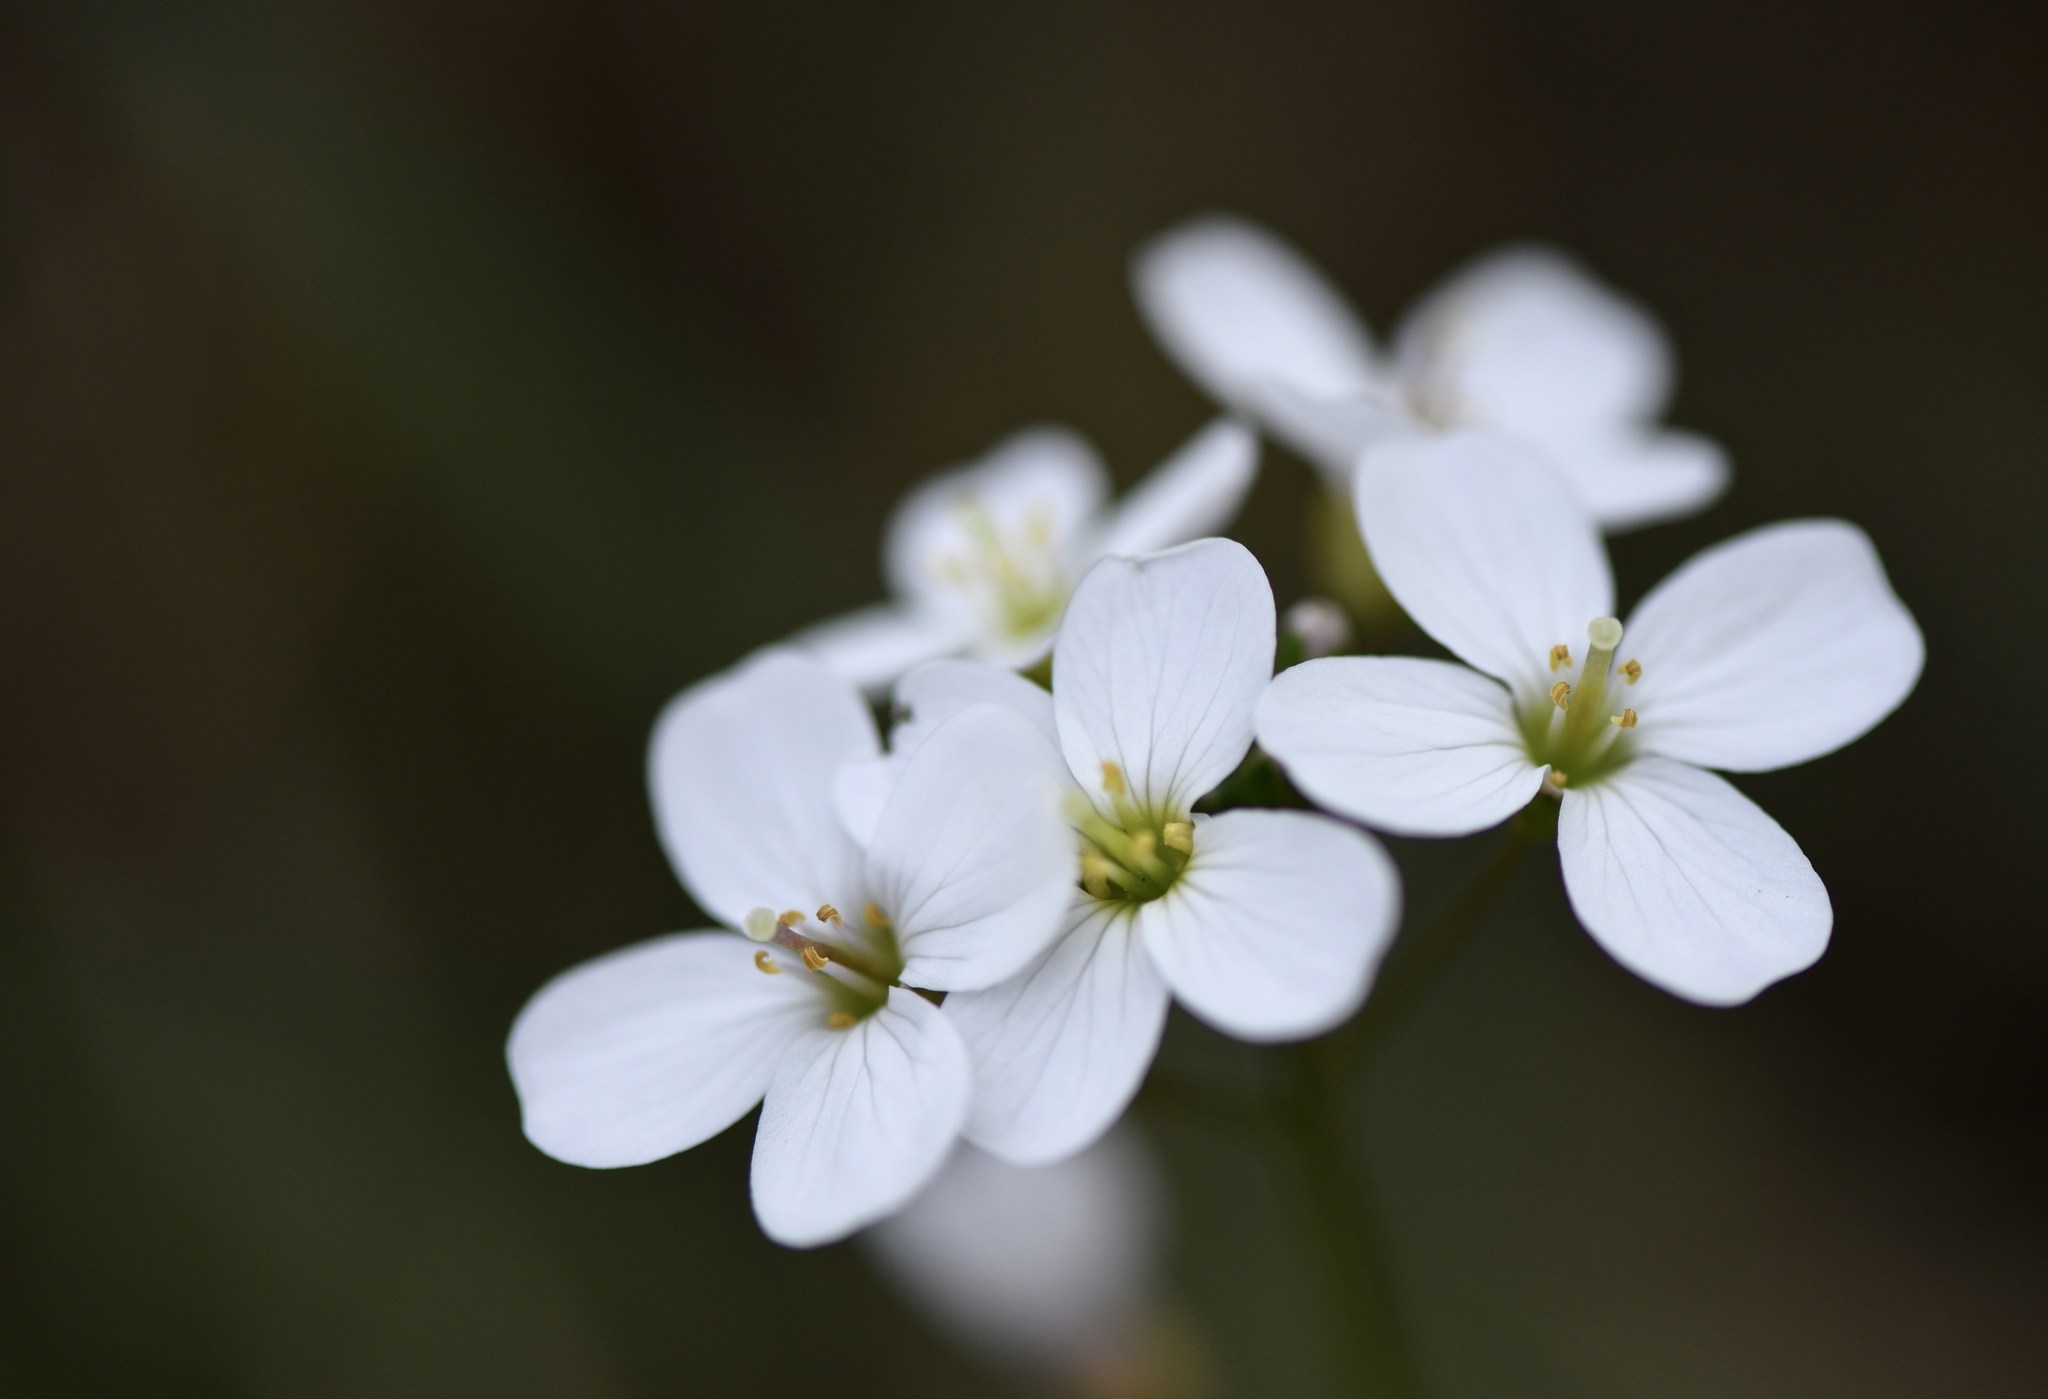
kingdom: Plantae
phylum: Tracheophyta
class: Magnoliopsida
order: Brassicales
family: Brassicaceae
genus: Cardamine
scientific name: Cardamine californica
